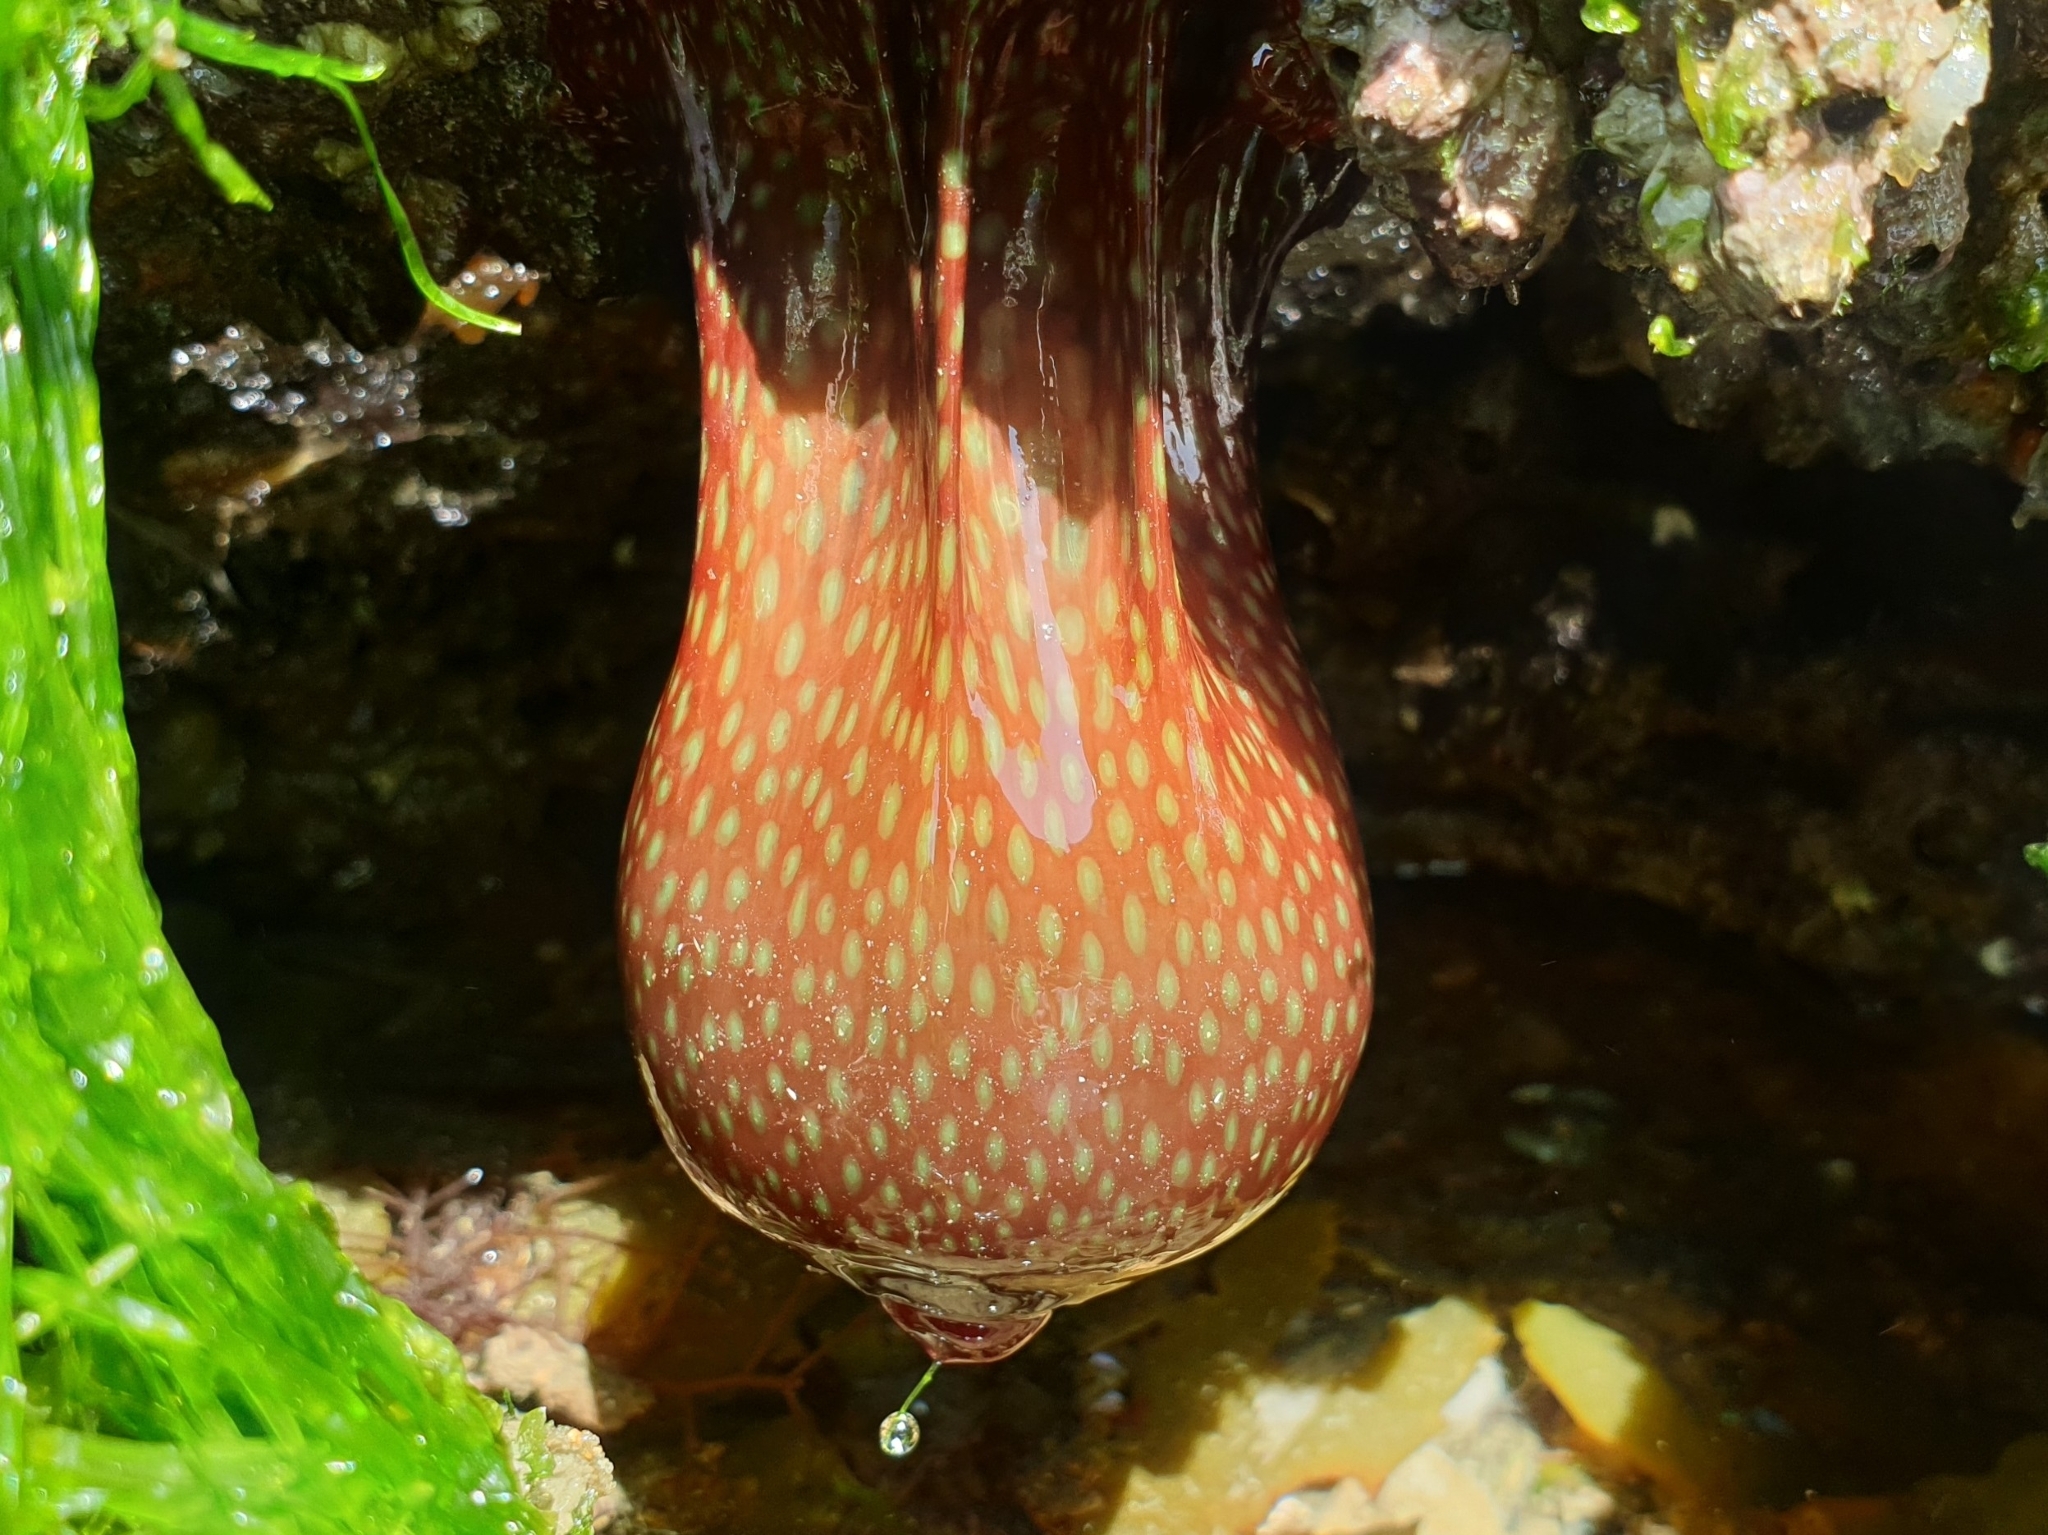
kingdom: Animalia
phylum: Cnidaria
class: Anthozoa
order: Actiniaria
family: Actiniidae
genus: Actinia
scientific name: Actinia fragacea
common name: Strawberry anemone
